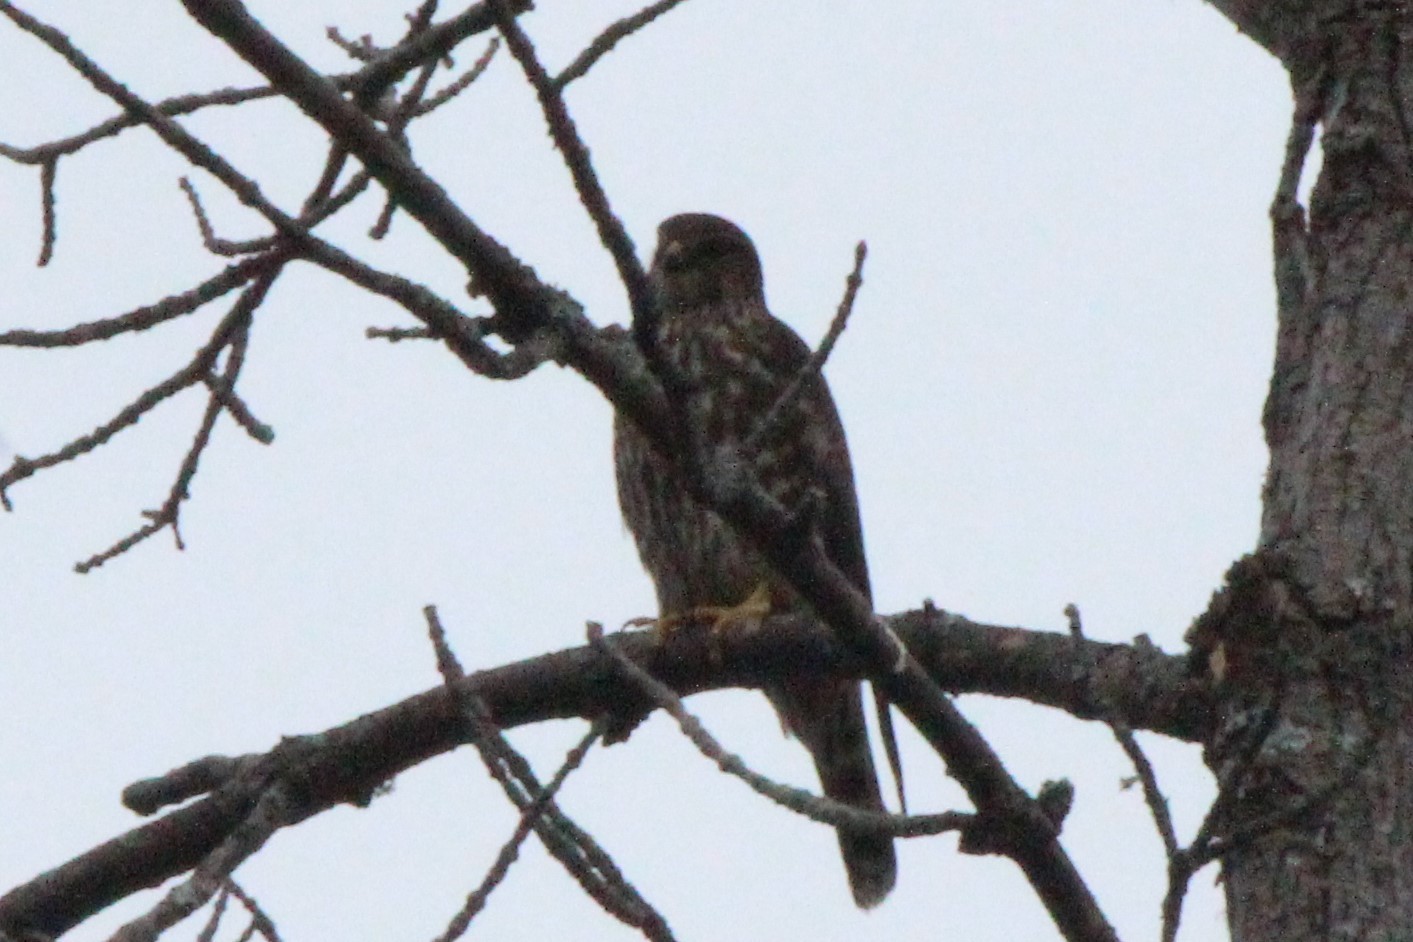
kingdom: Animalia
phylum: Chordata
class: Aves
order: Falconiformes
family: Falconidae
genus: Falco
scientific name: Falco columbarius
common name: Merlin
